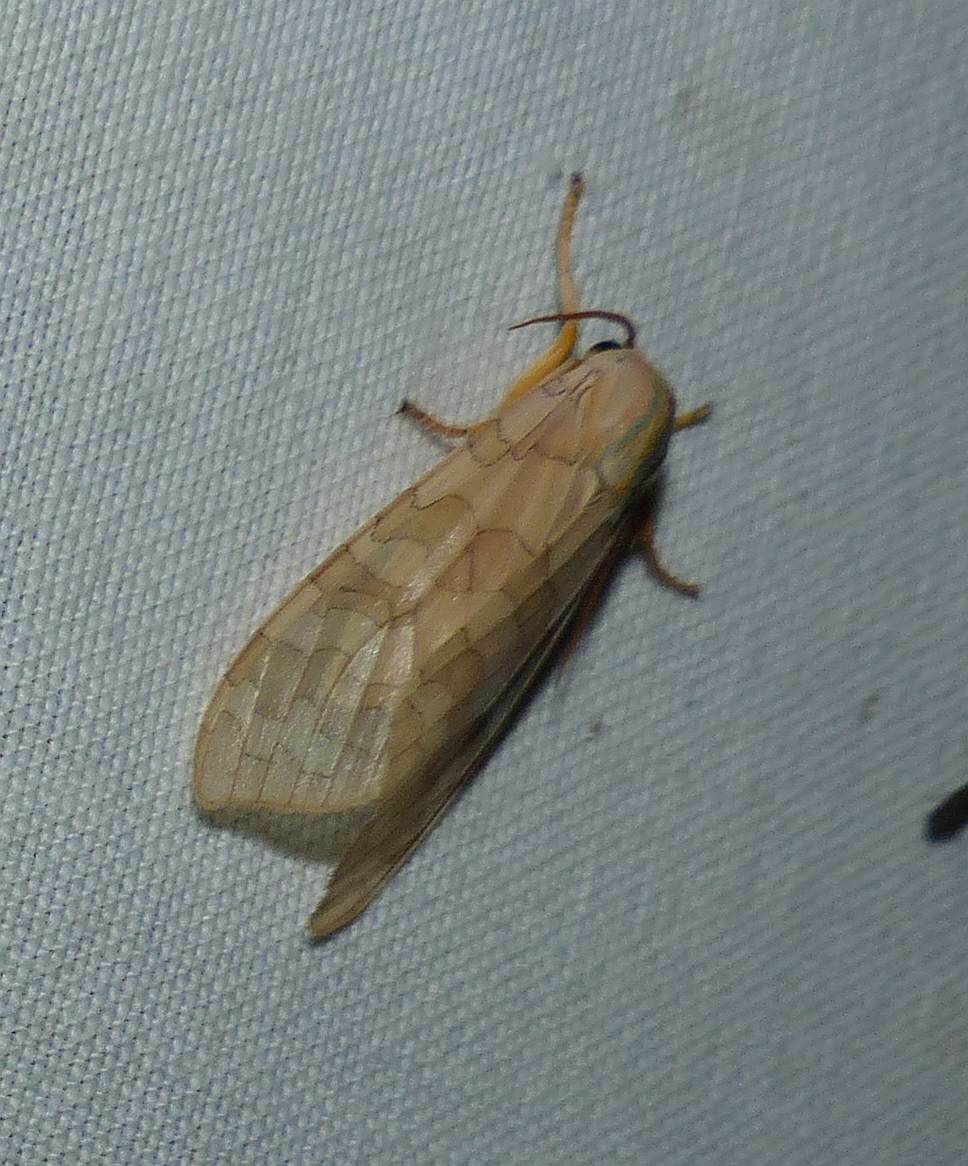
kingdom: Animalia
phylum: Arthropoda
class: Insecta
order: Lepidoptera
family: Erebidae
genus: Halysidota
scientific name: Halysidota tessellaris
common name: Banded tussock moth
